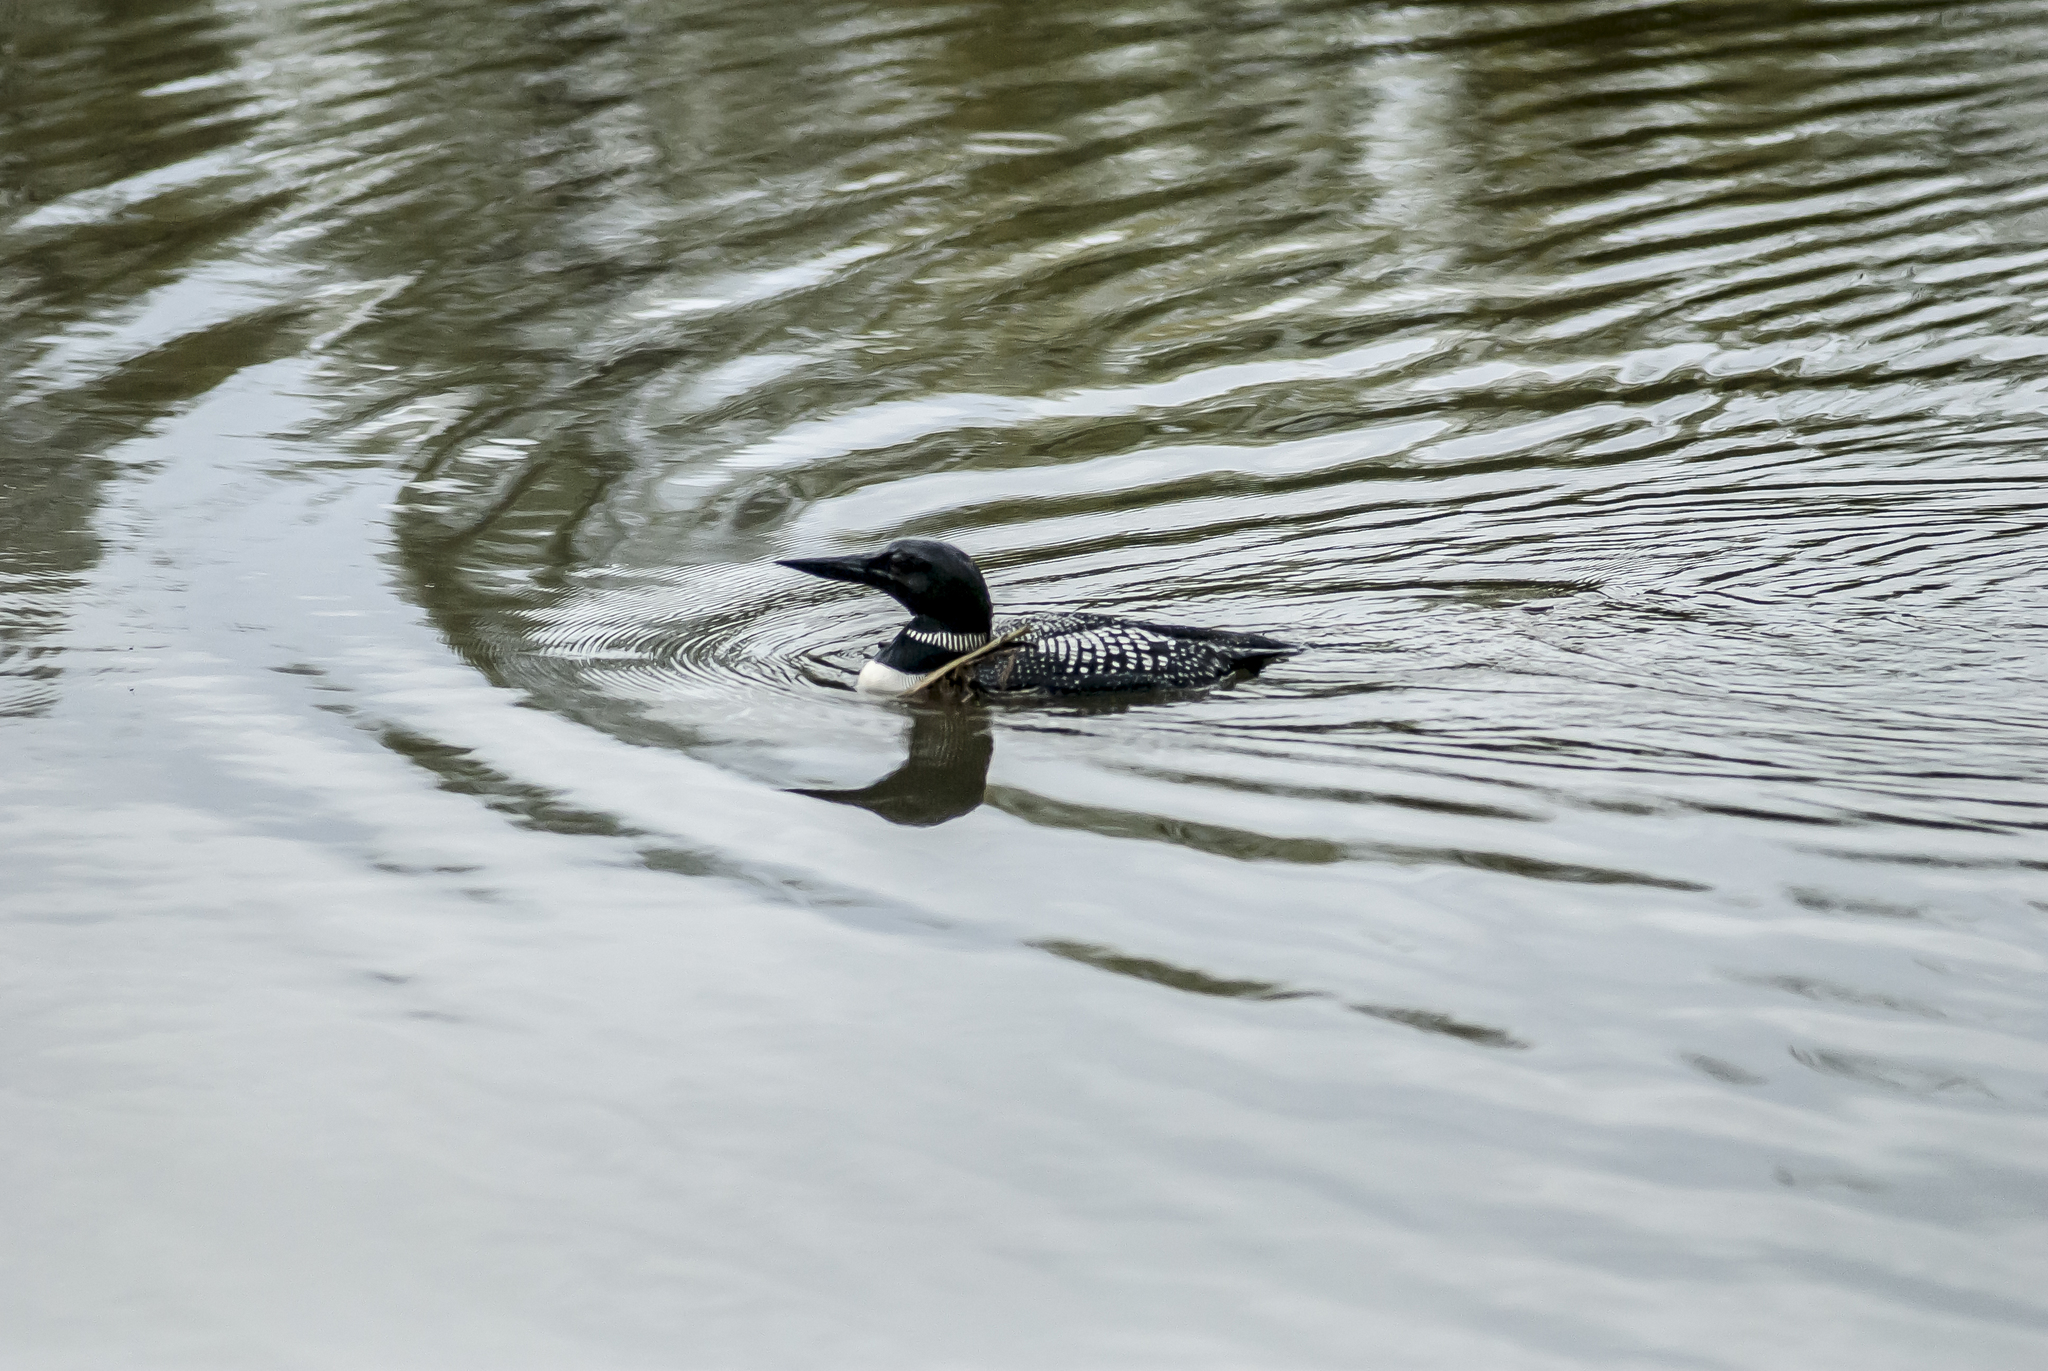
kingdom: Animalia
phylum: Chordata
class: Aves
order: Gaviiformes
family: Gaviidae
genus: Gavia
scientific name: Gavia immer
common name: Common loon
